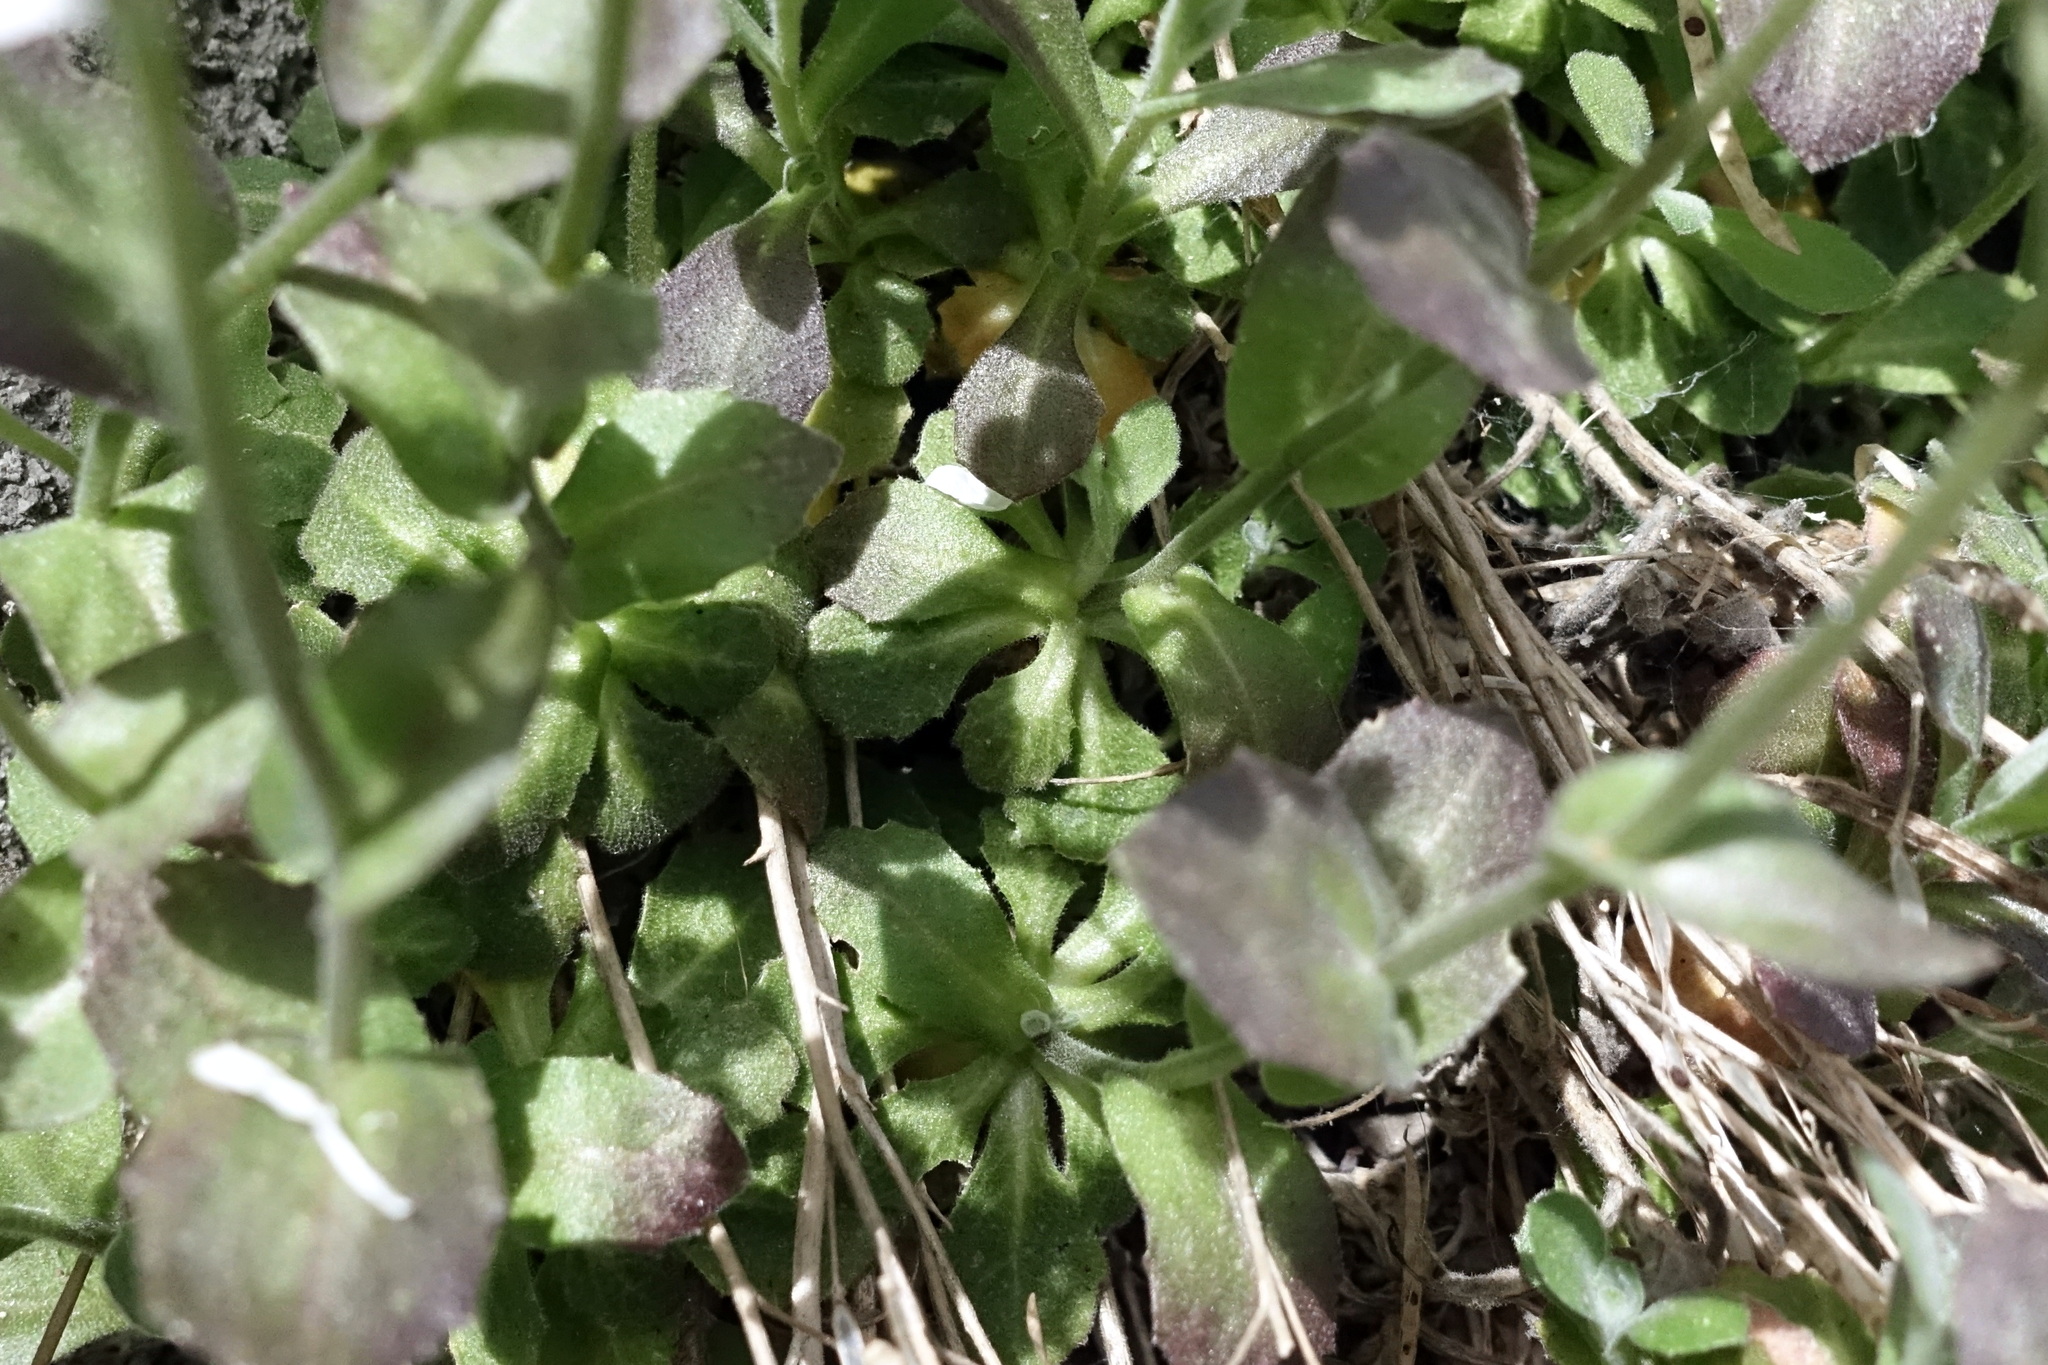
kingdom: Plantae
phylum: Tracheophyta
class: Magnoliopsida
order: Brassicales
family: Brassicaceae
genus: Arabis
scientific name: Arabis caucasica
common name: Gray rockcress
